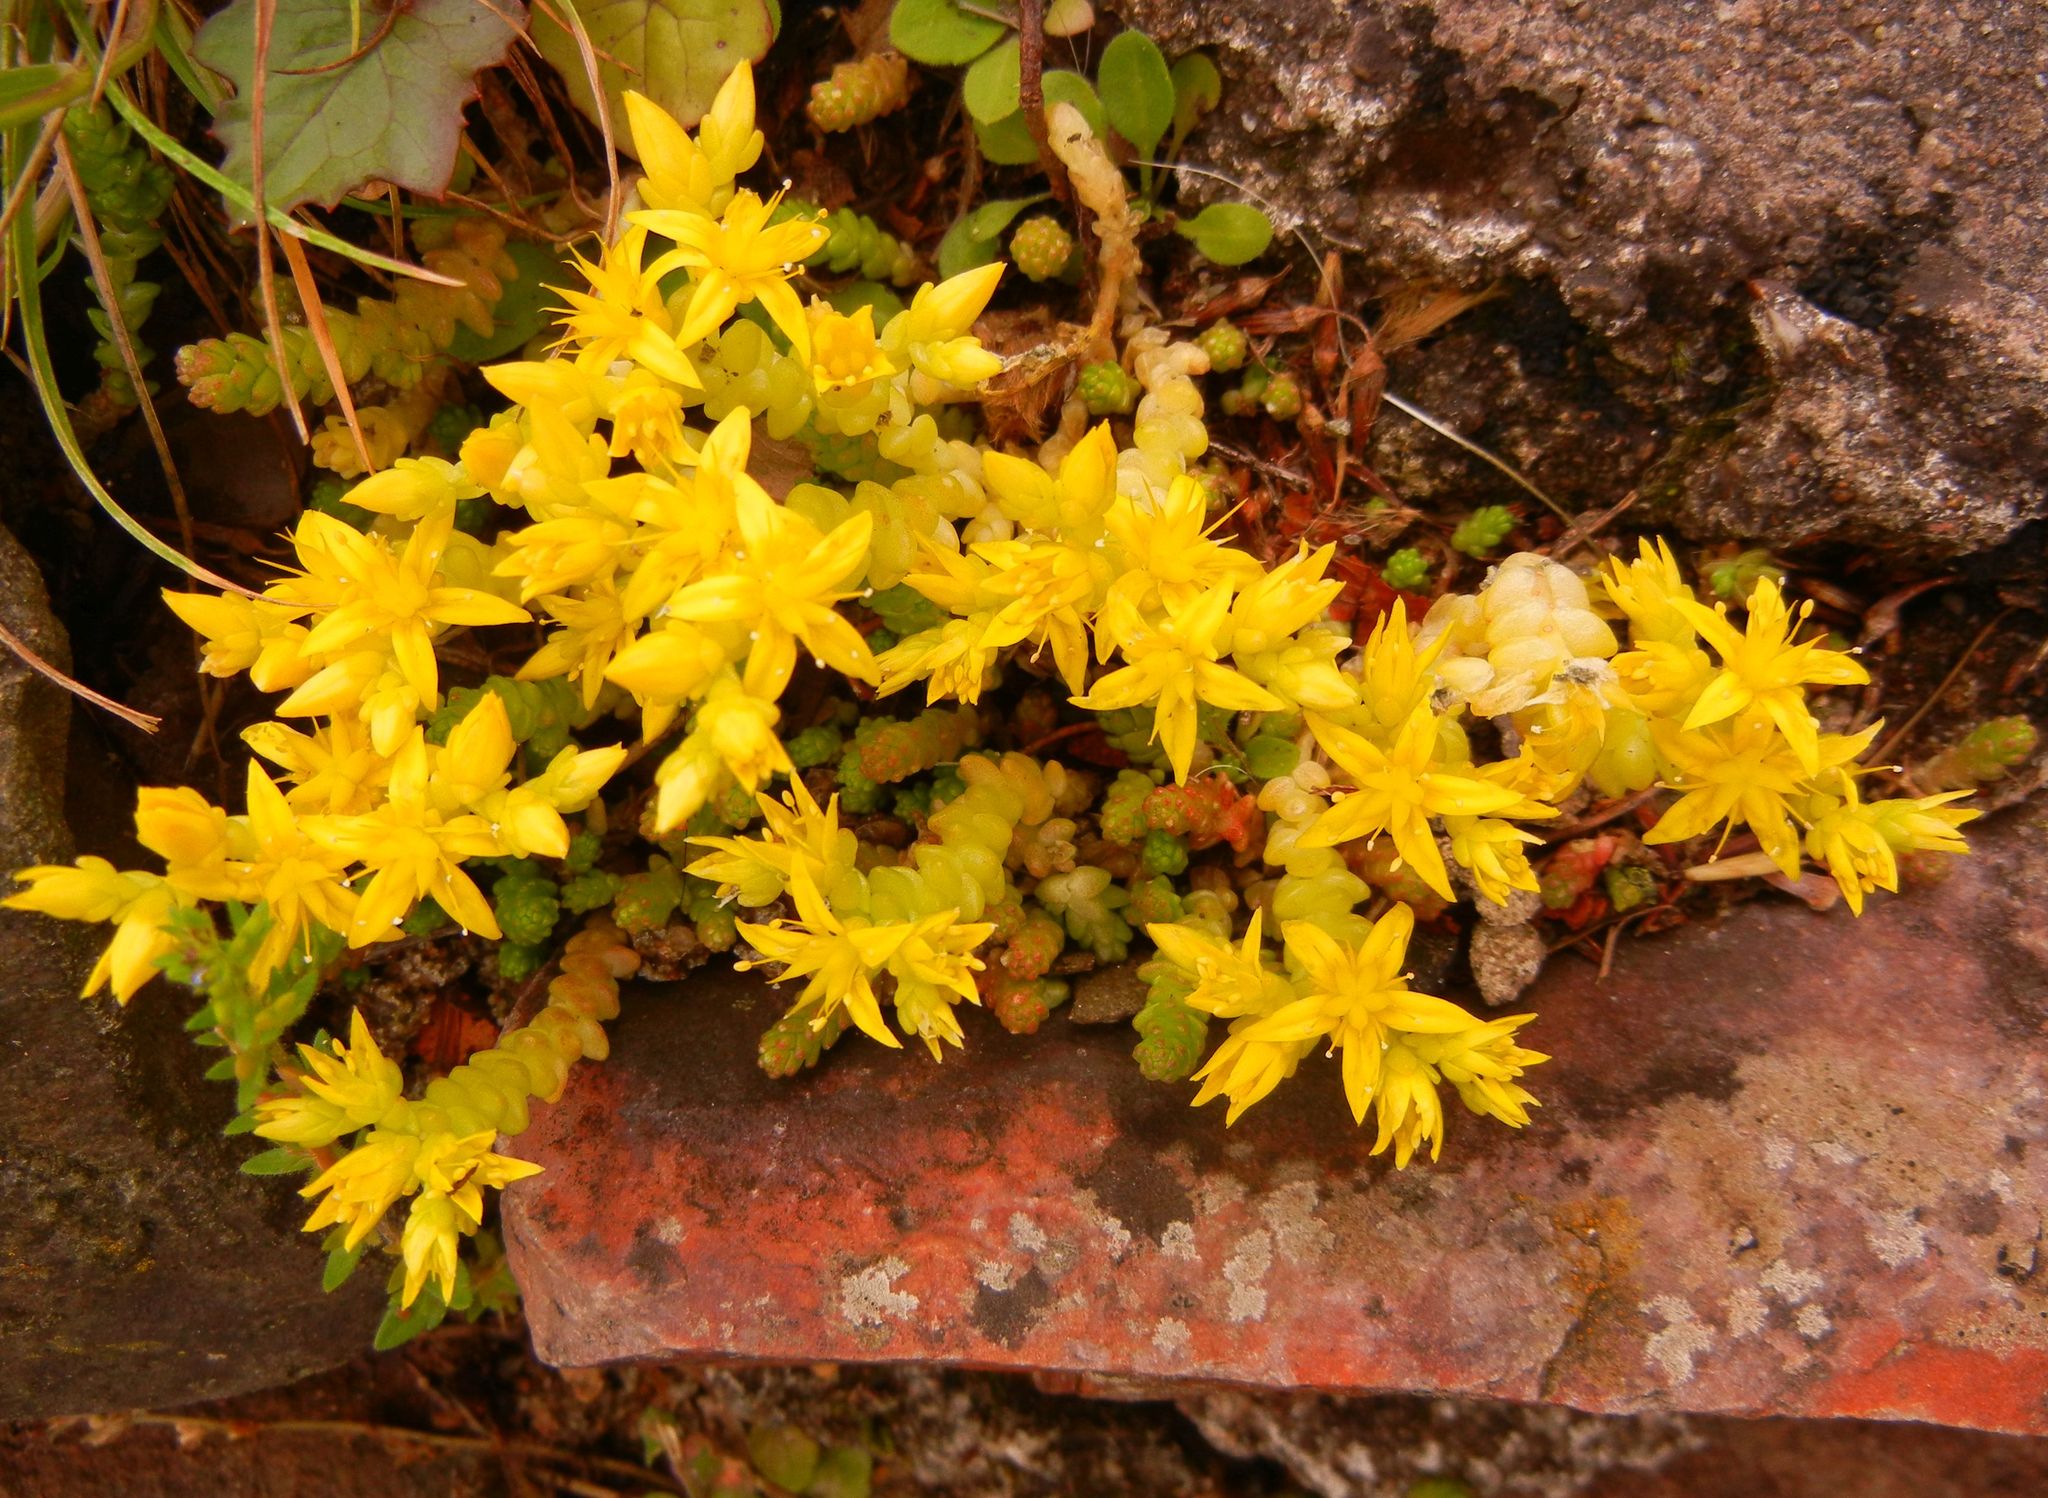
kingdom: Plantae
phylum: Tracheophyta
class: Magnoliopsida
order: Saxifragales
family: Crassulaceae
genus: Sedum
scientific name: Sedum acre
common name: Biting stonecrop
